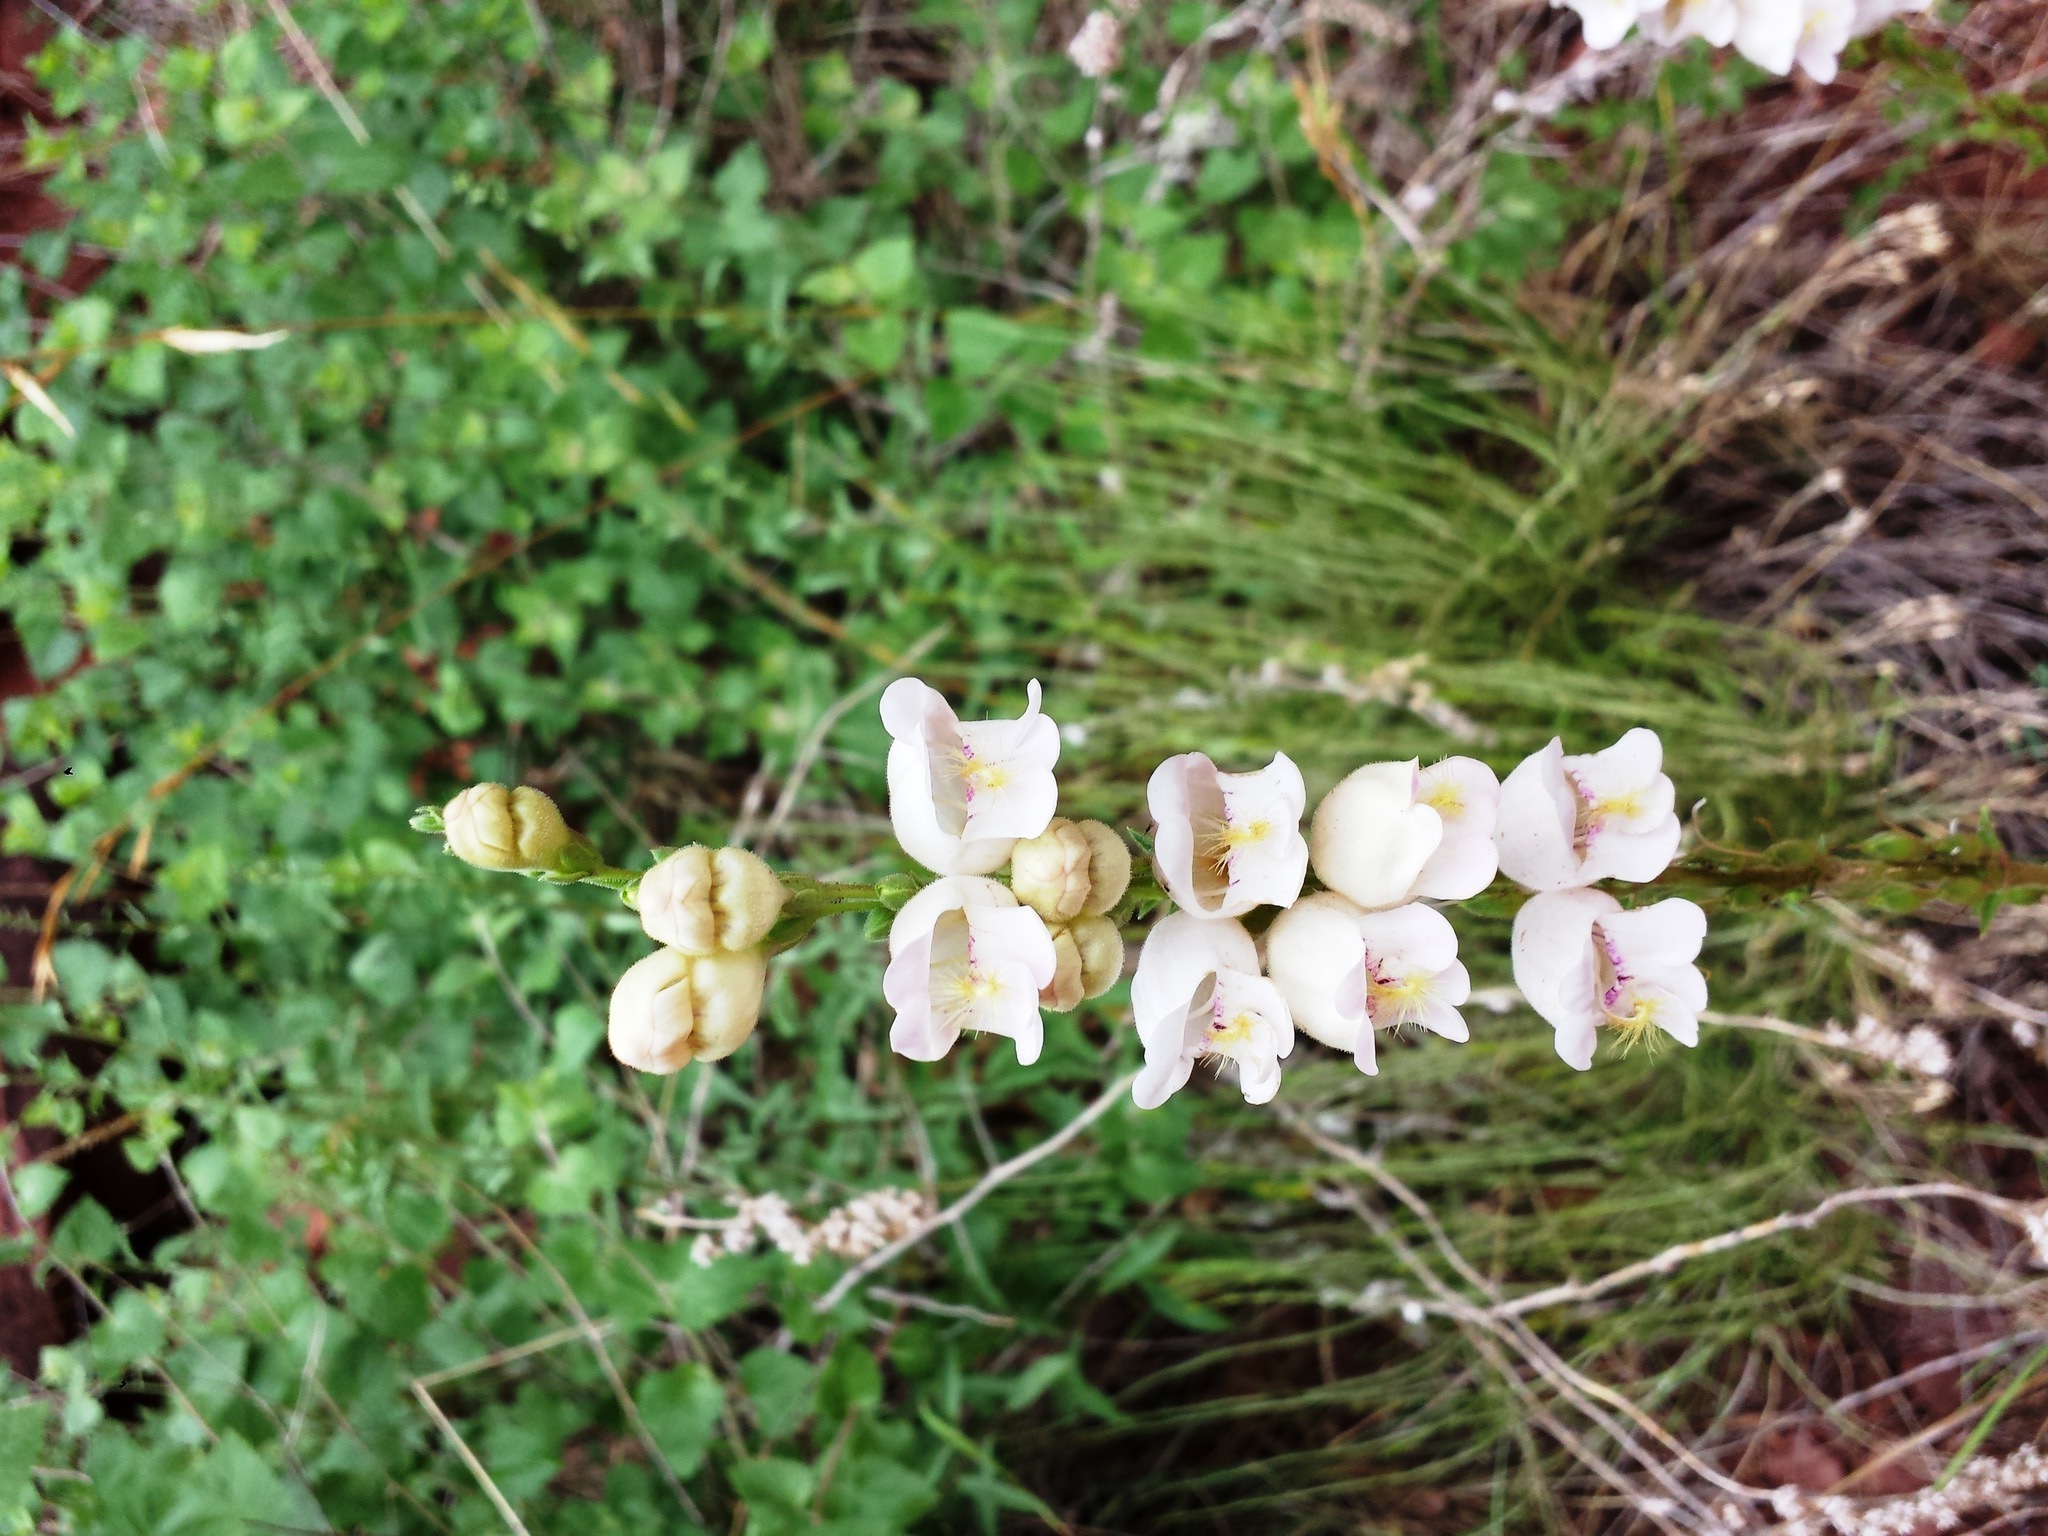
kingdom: Plantae
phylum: Tracheophyta
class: Magnoliopsida
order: Lamiales
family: Plantaginaceae
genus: Penstemon
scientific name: Penstemon palmeri
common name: Palmer penstemon
